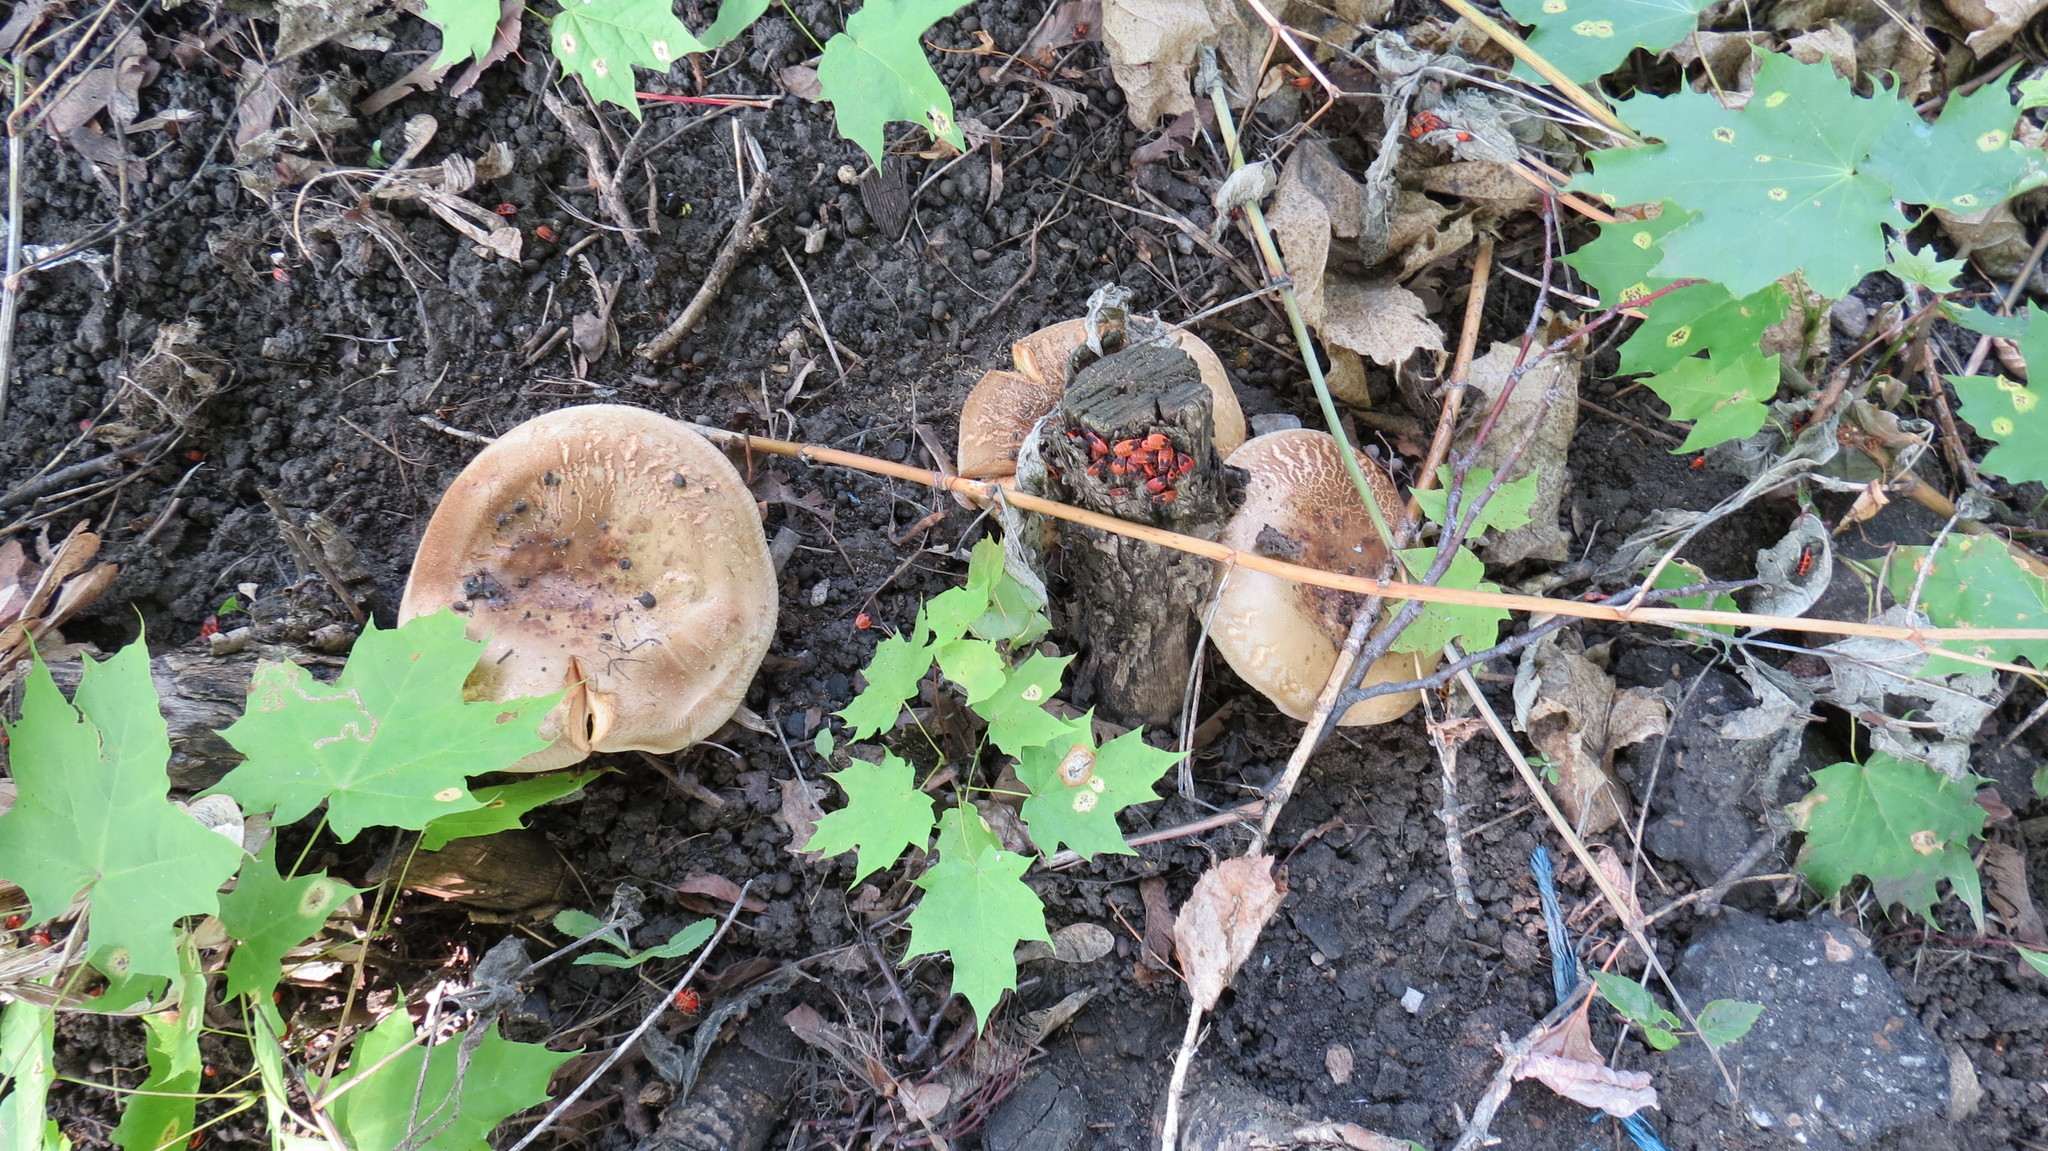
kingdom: Fungi
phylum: Basidiomycota
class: Agaricomycetes
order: Boletales
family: Paxillaceae
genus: Paxillus
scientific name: Paxillus involutus
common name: Brown roll rim
